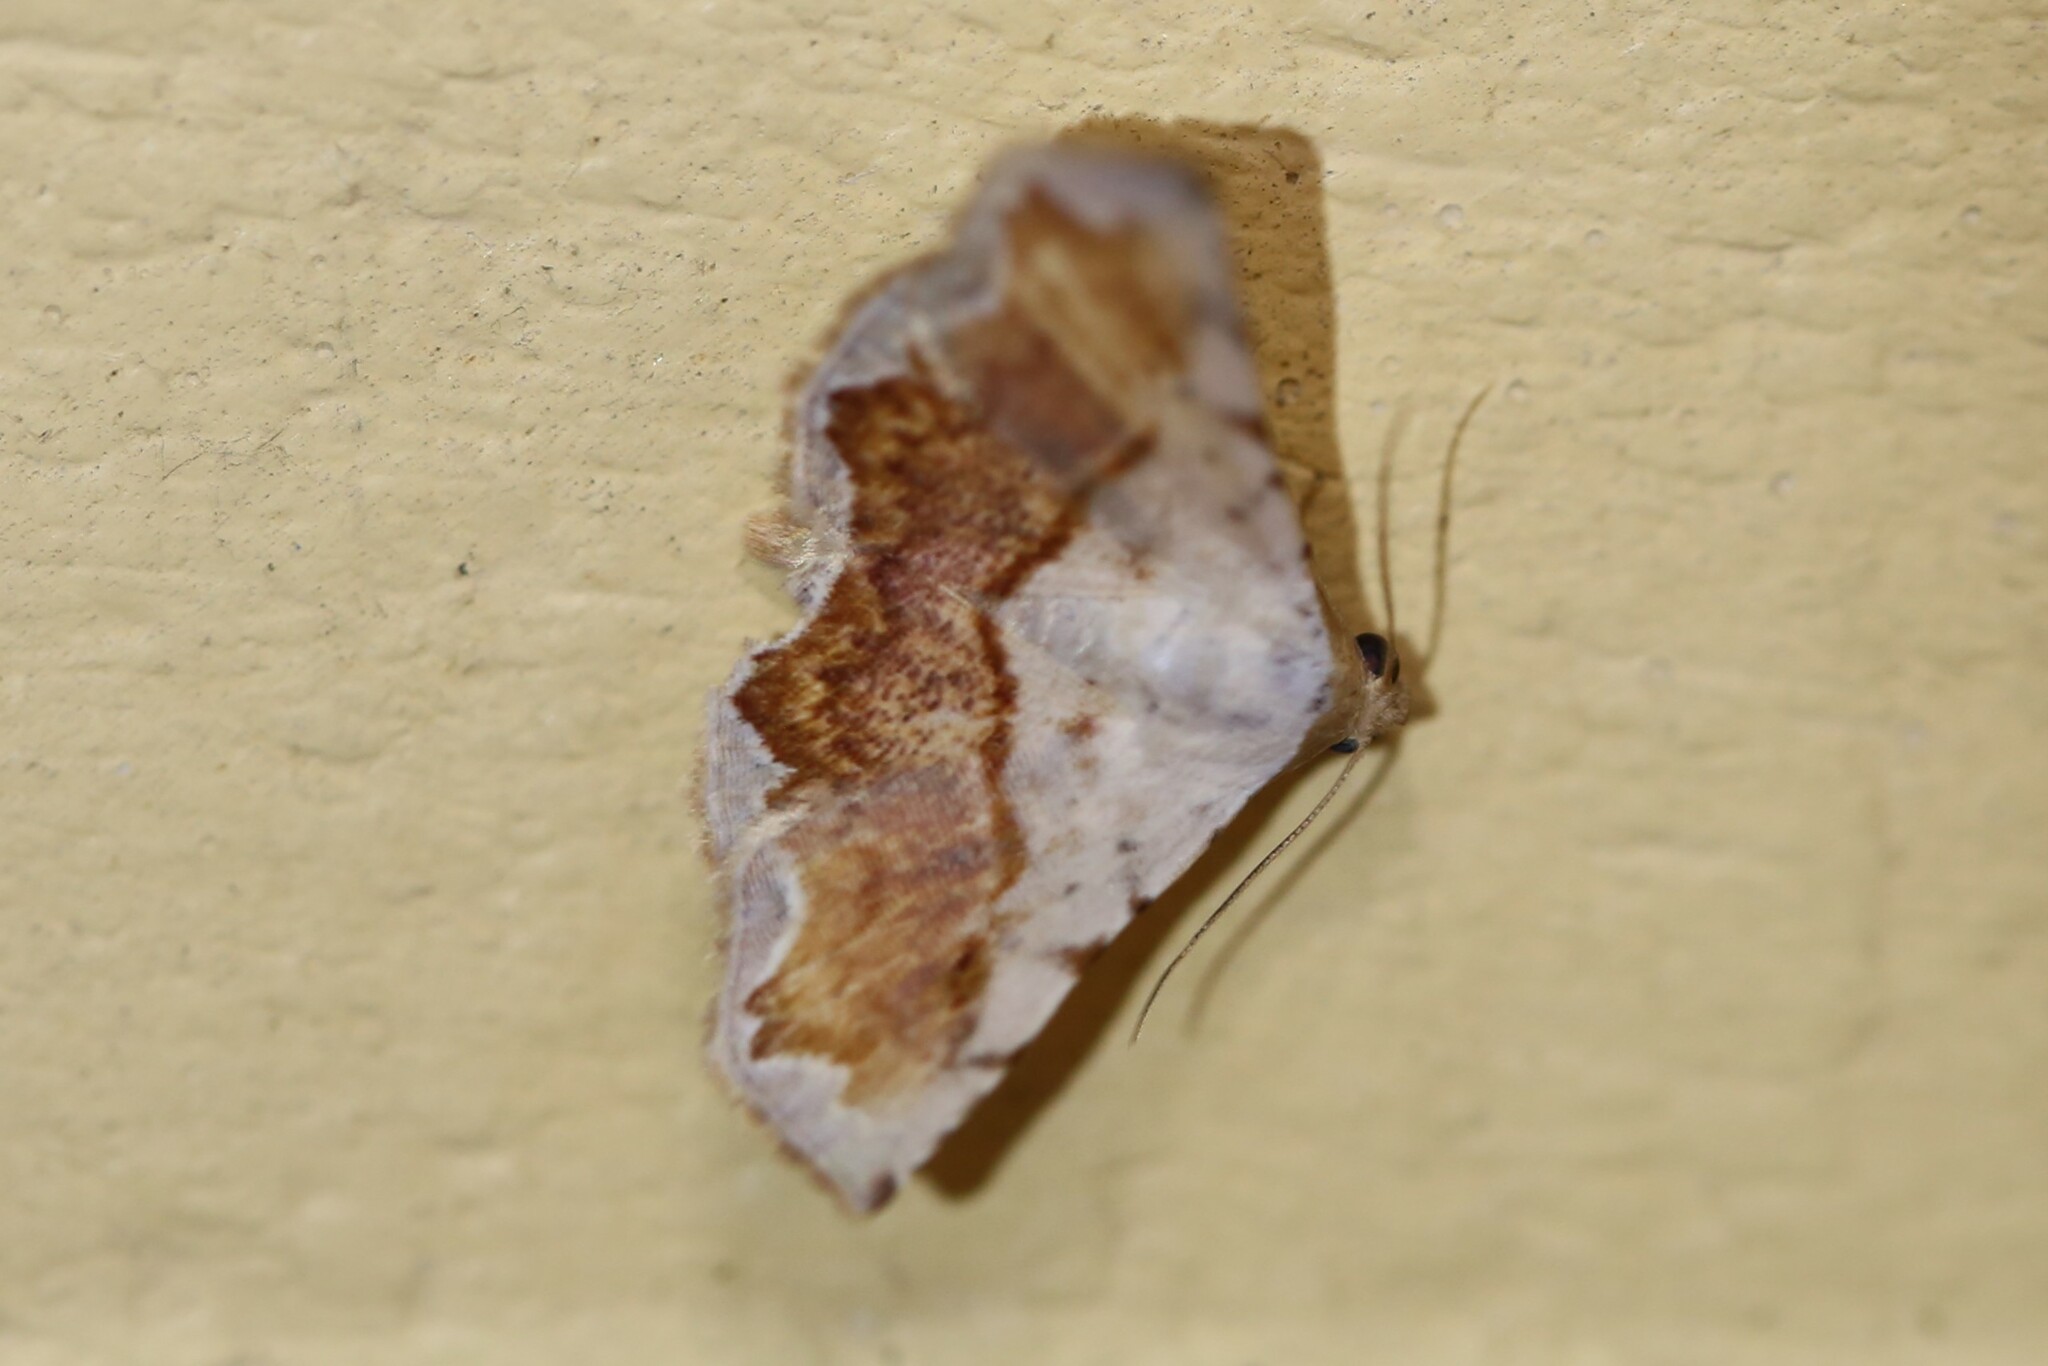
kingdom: Animalia
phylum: Arthropoda
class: Insecta
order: Lepidoptera
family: Noctuidae
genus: Eublemma
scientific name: Eublemma
